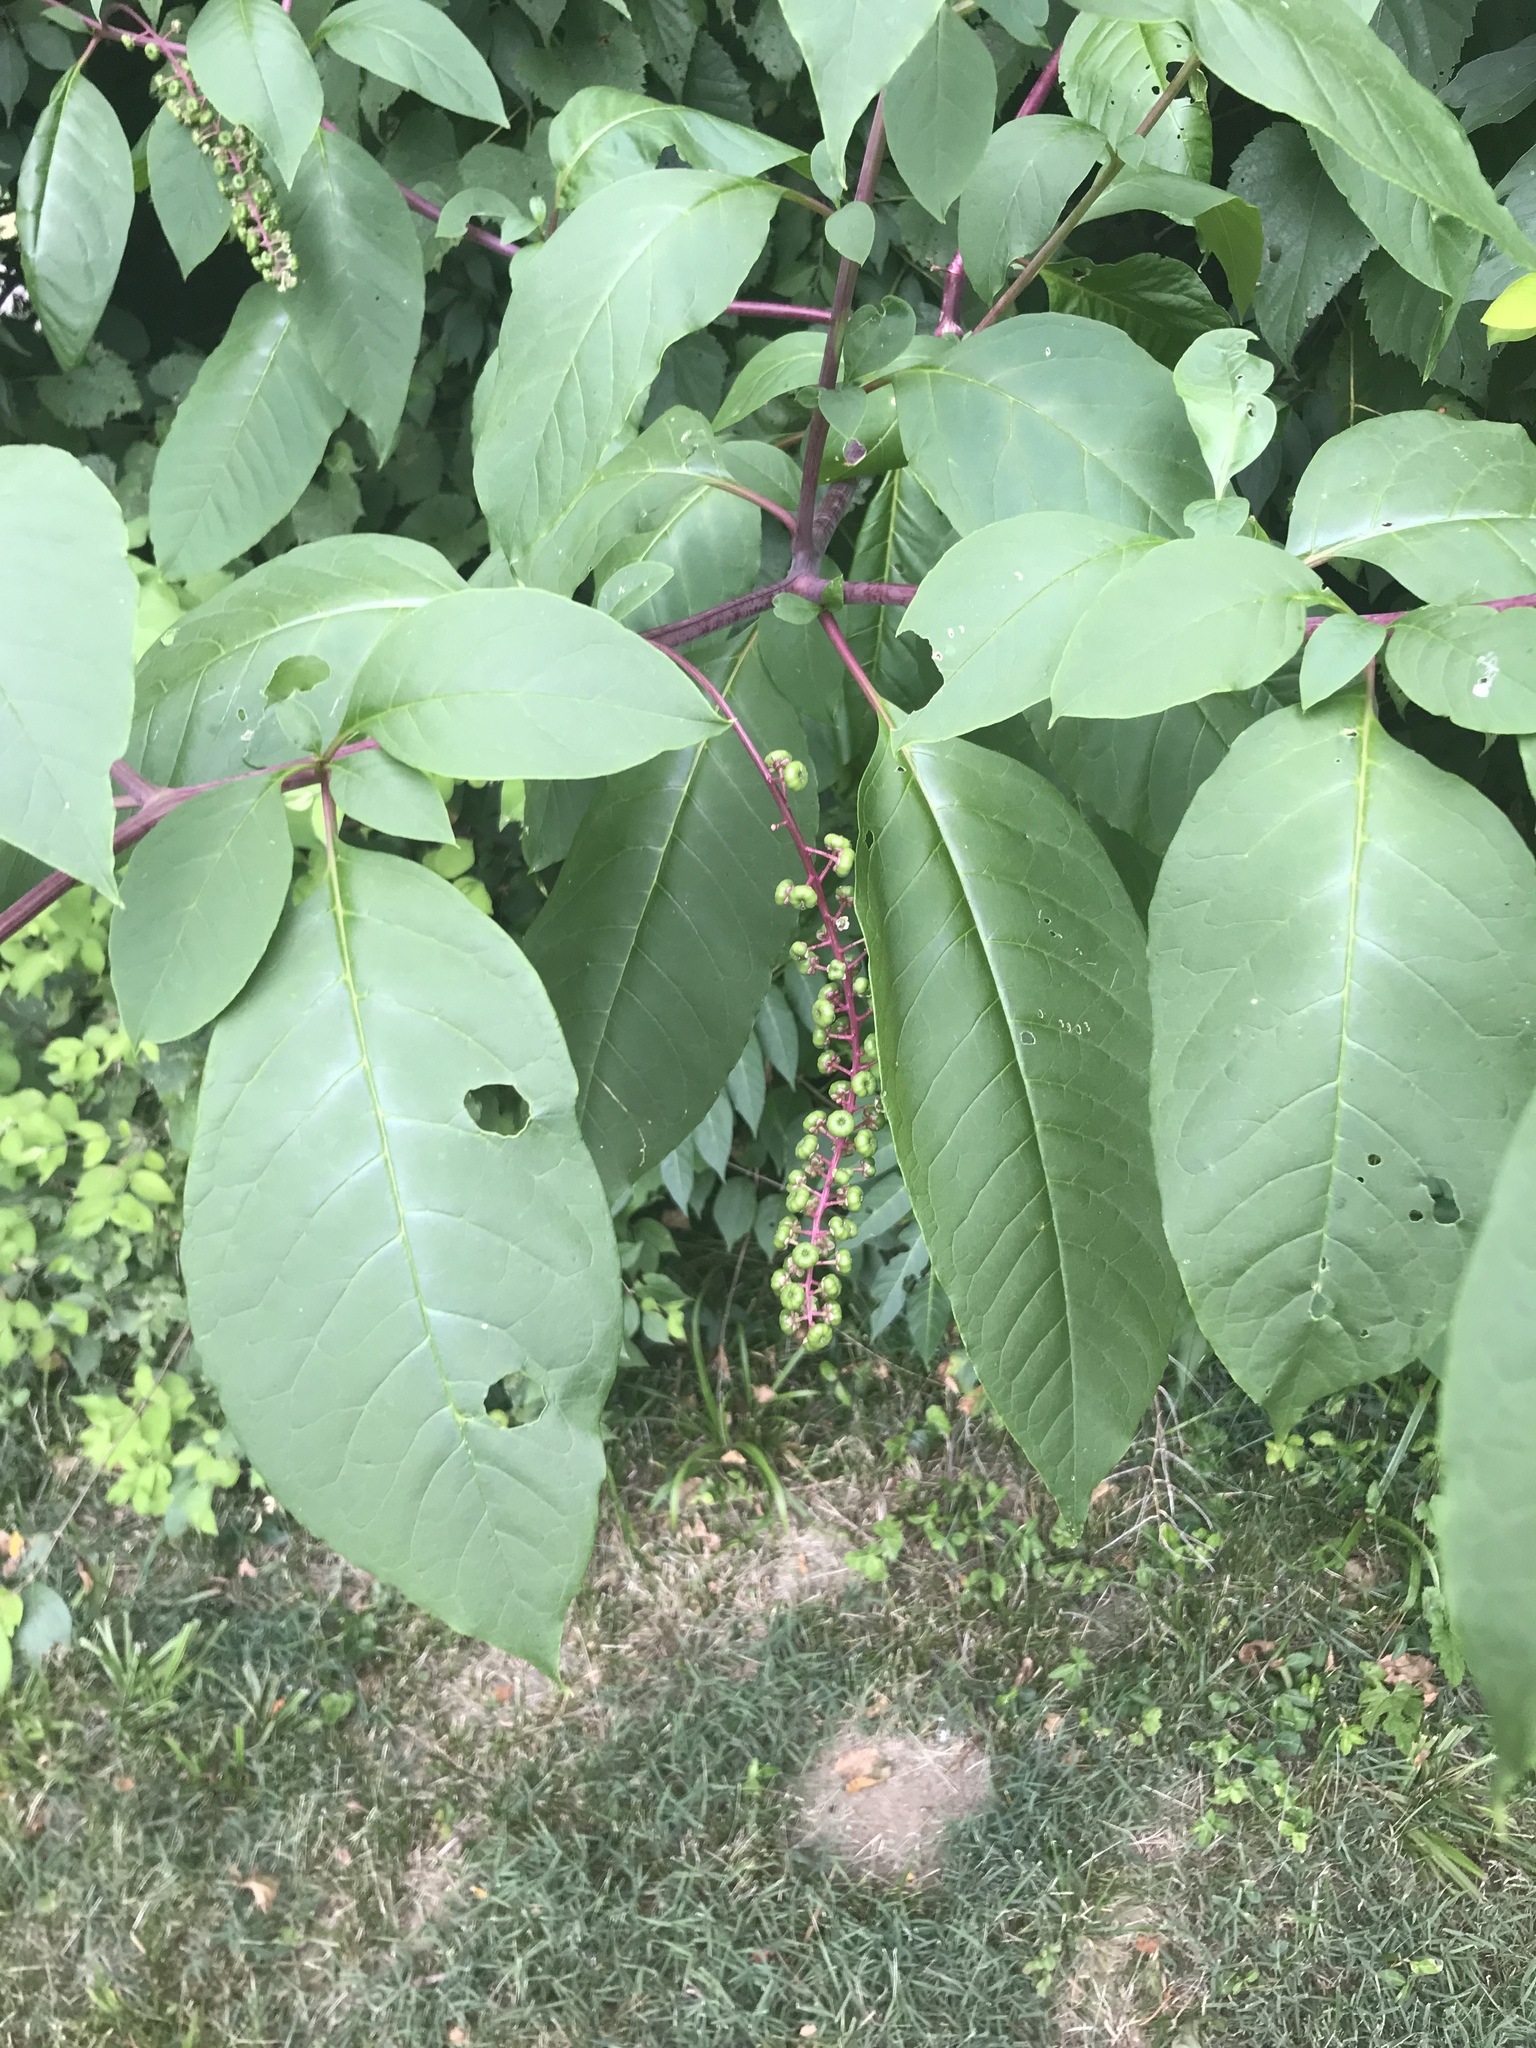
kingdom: Plantae
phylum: Tracheophyta
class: Magnoliopsida
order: Caryophyllales
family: Phytolaccaceae
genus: Phytolacca
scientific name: Phytolacca americana
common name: American pokeweed
